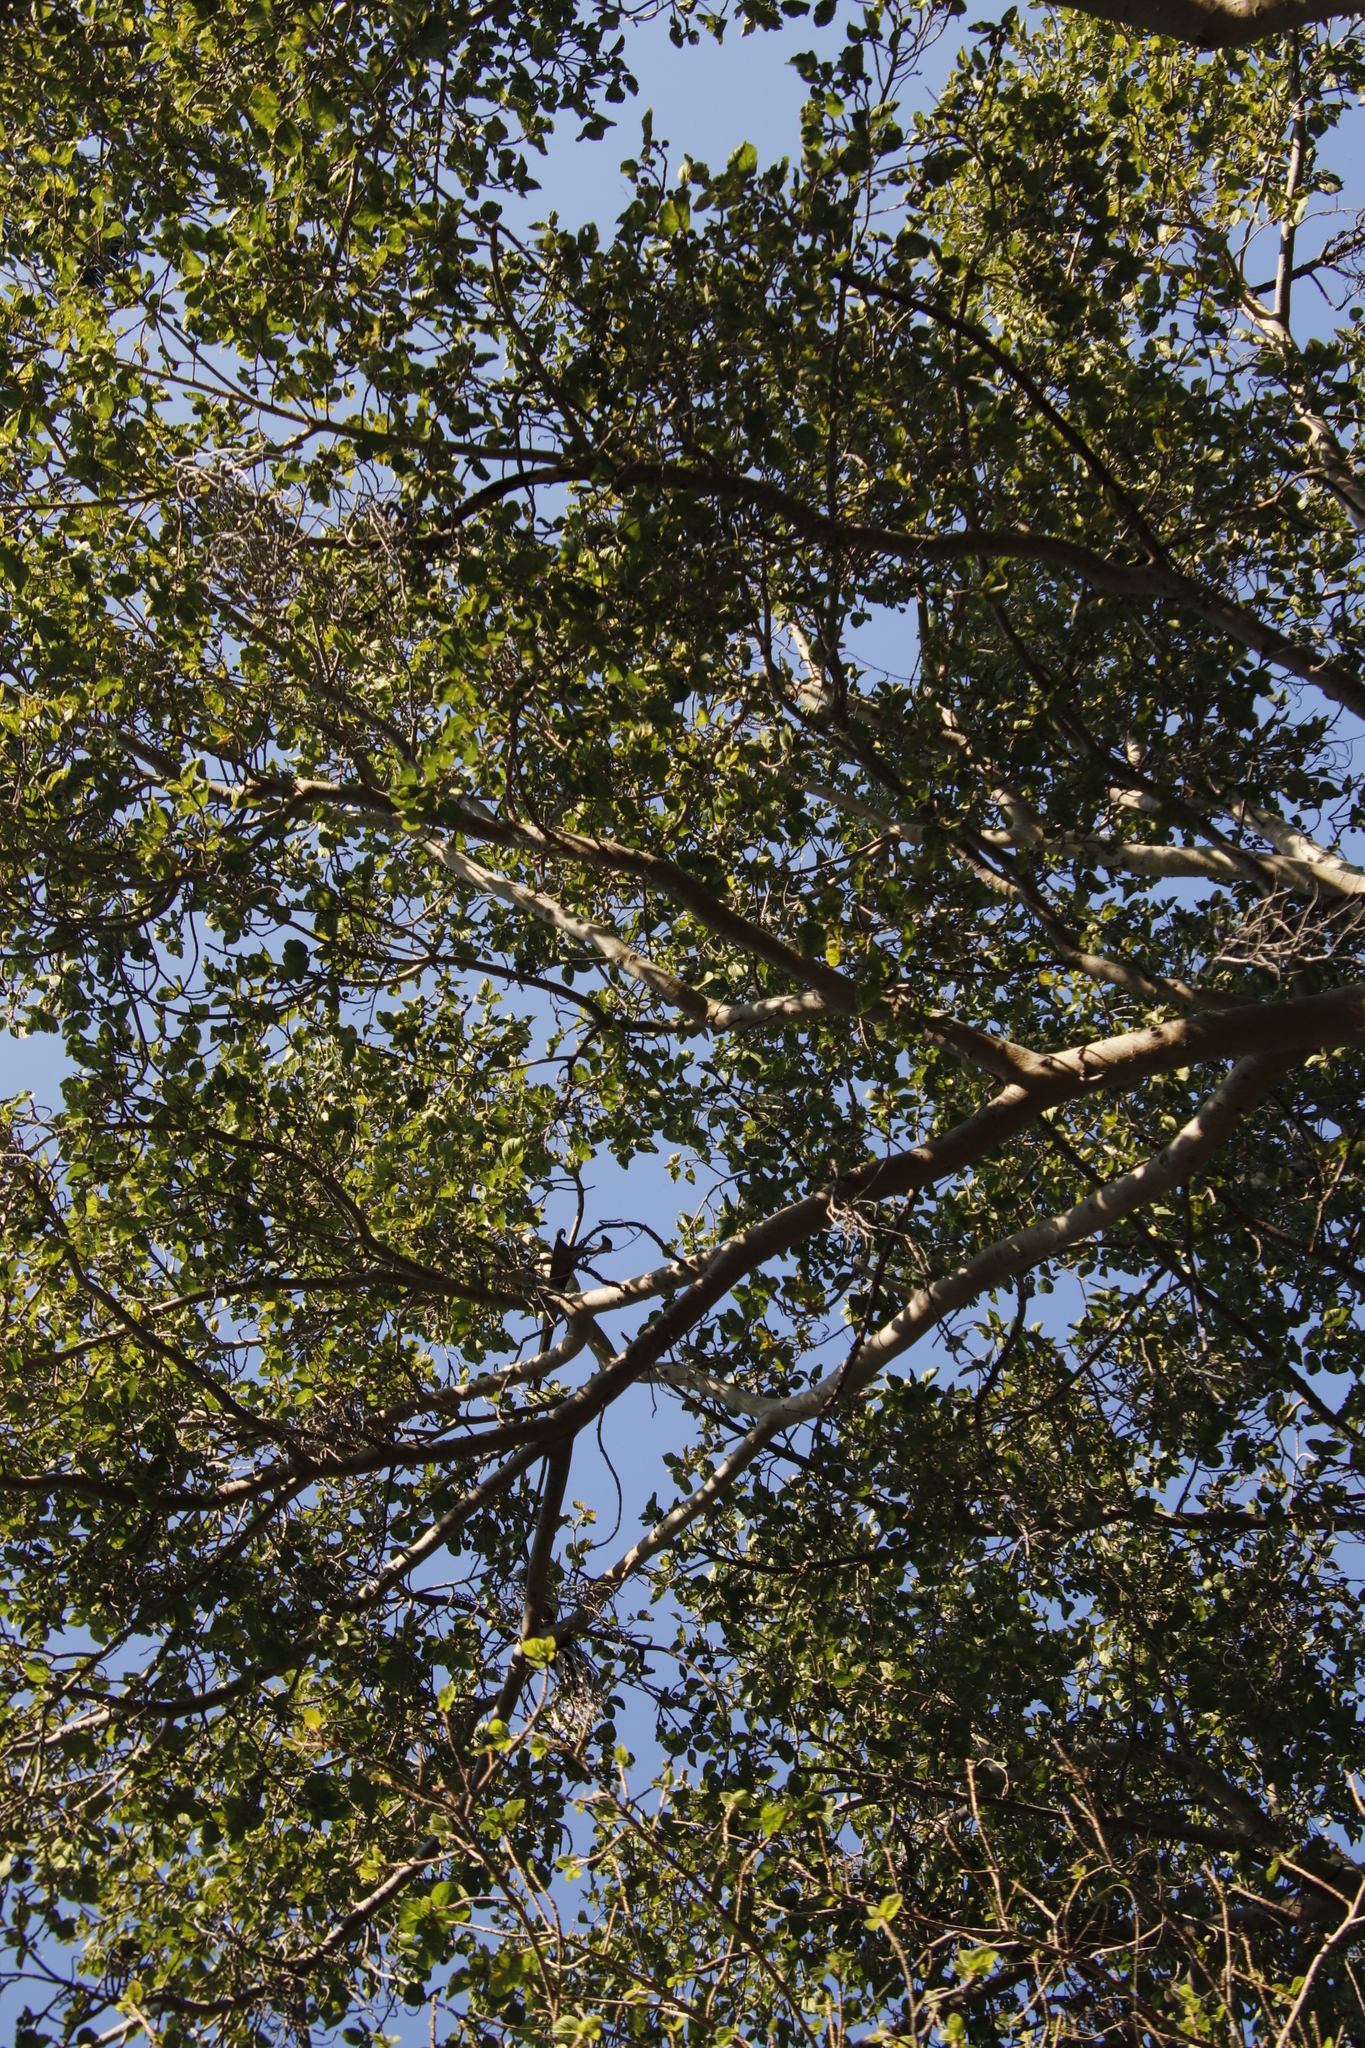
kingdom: Plantae
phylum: Tracheophyta
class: Magnoliopsida
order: Rosales
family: Moraceae
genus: Ficus
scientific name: Ficus sycomorus
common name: Sycomore
